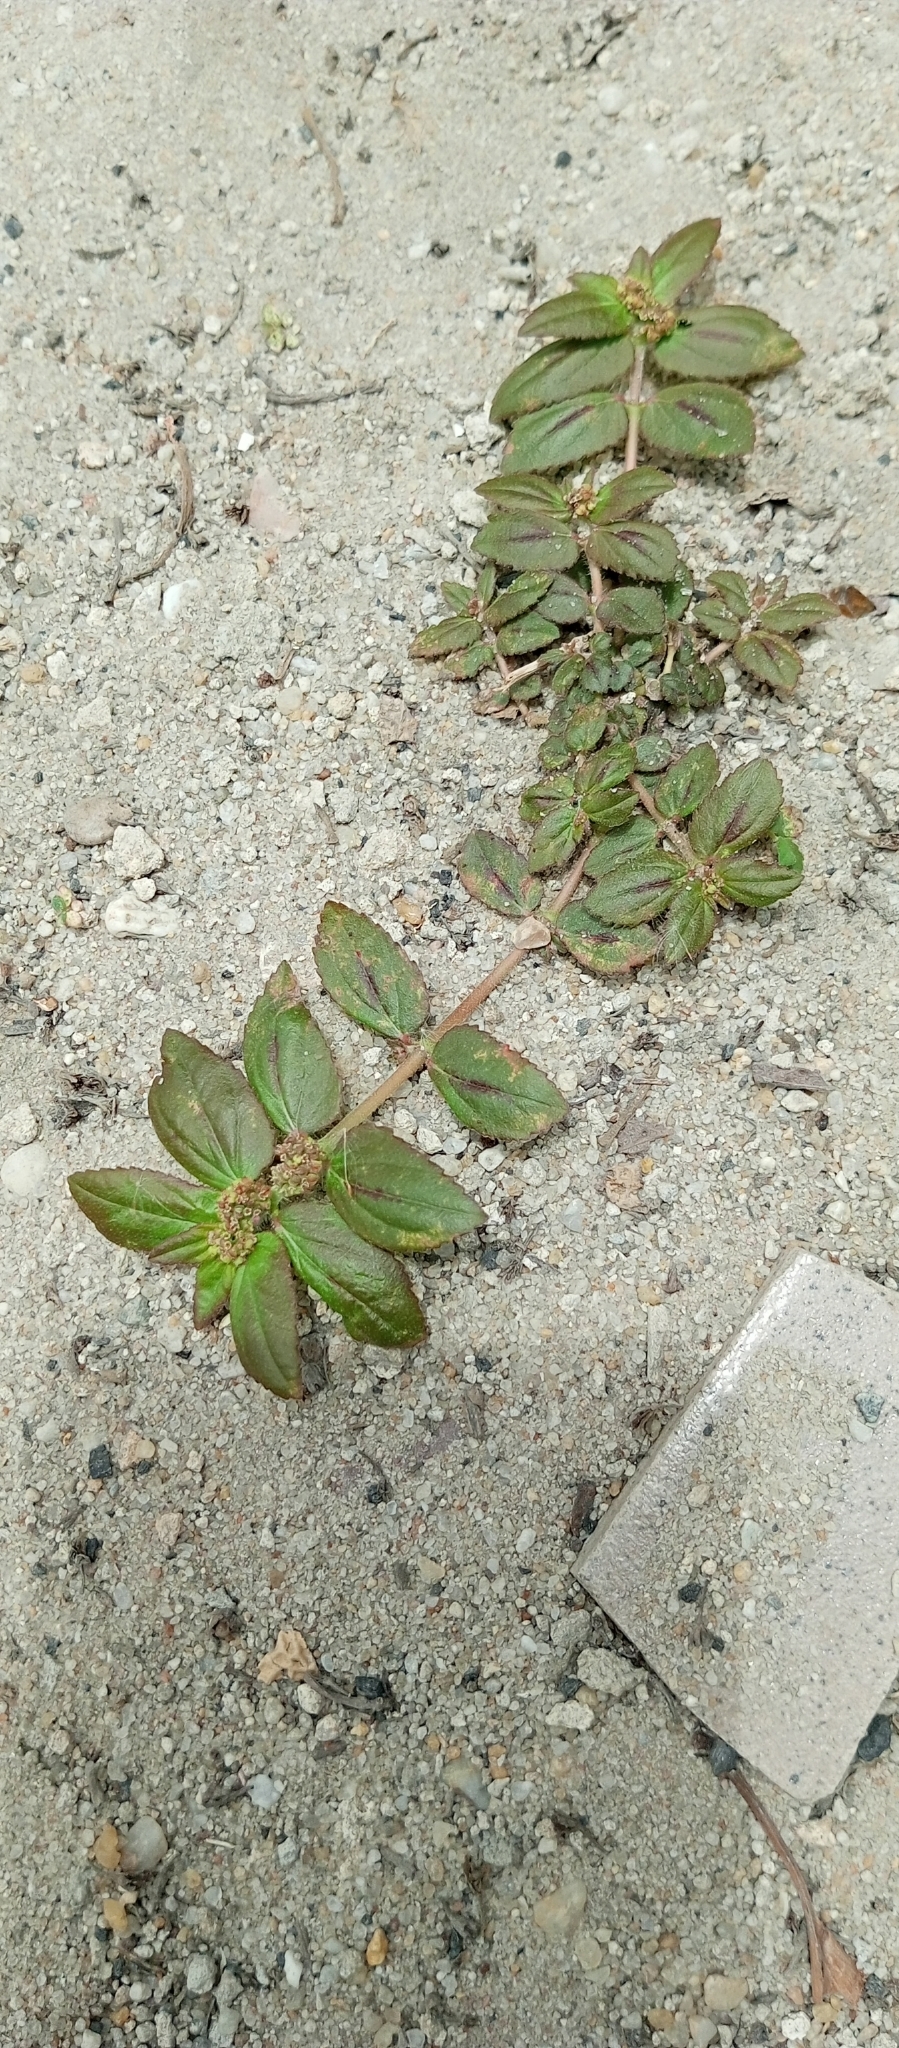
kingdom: Plantae
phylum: Tracheophyta
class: Magnoliopsida
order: Malpighiales
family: Euphorbiaceae
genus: Euphorbia
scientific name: Euphorbia hirta
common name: Pillpod sandmat
